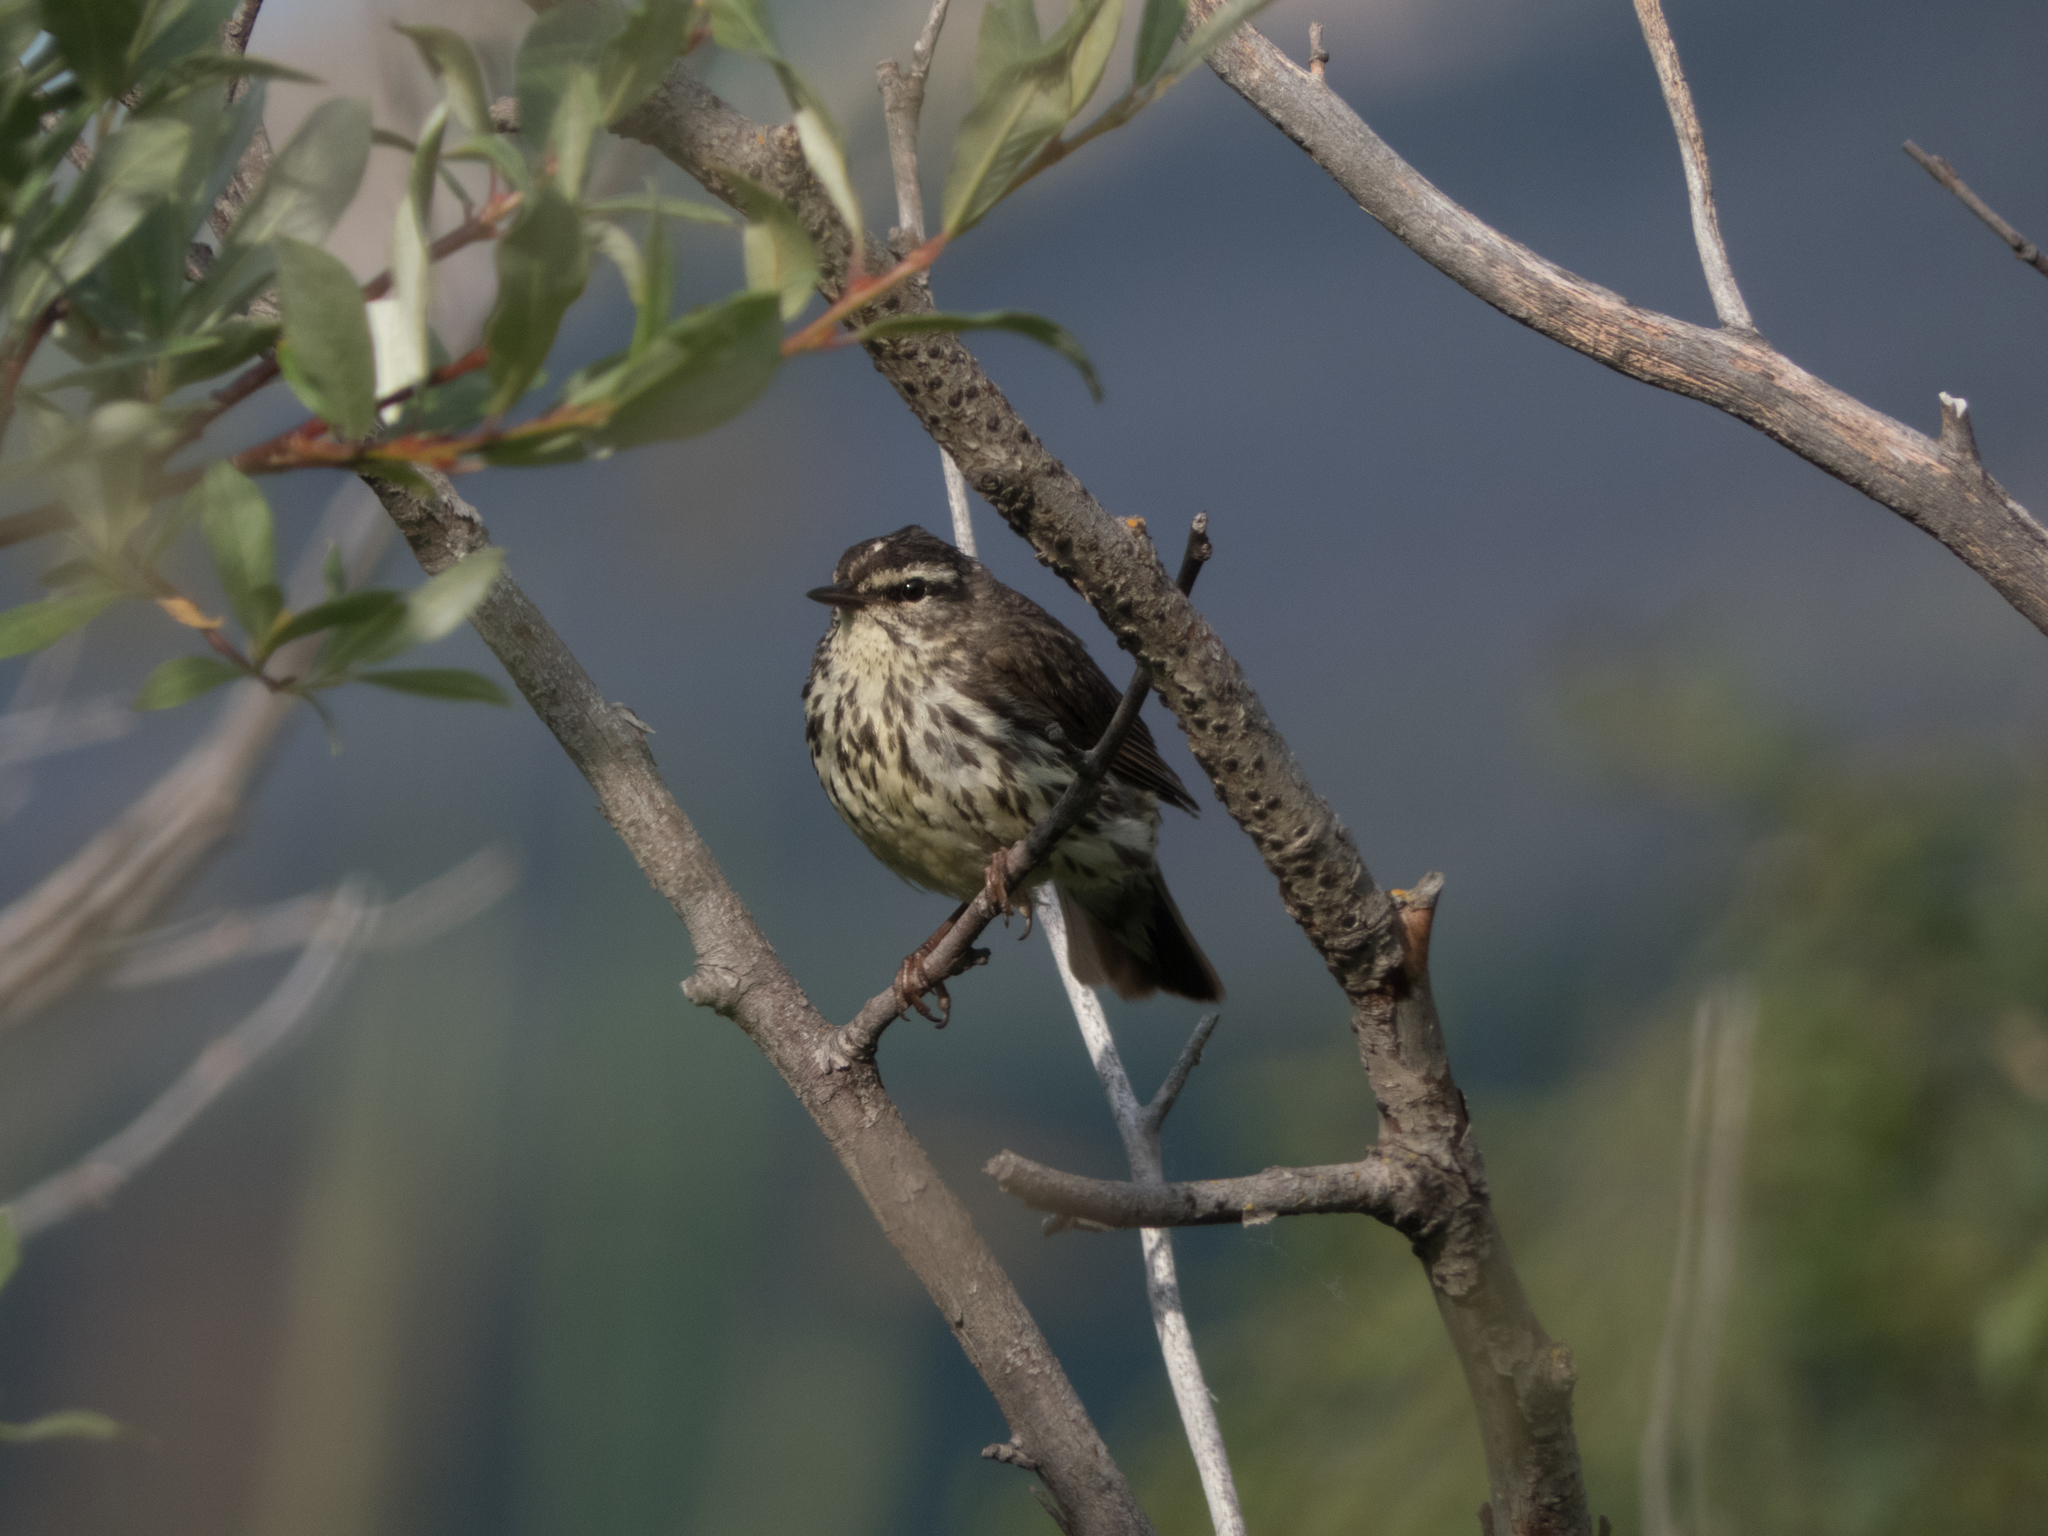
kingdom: Animalia
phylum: Chordata
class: Aves
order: Passeriformes
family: Parulidae
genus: Parkesia
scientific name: Parkesia noveboracensis
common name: Northern waterthrush
